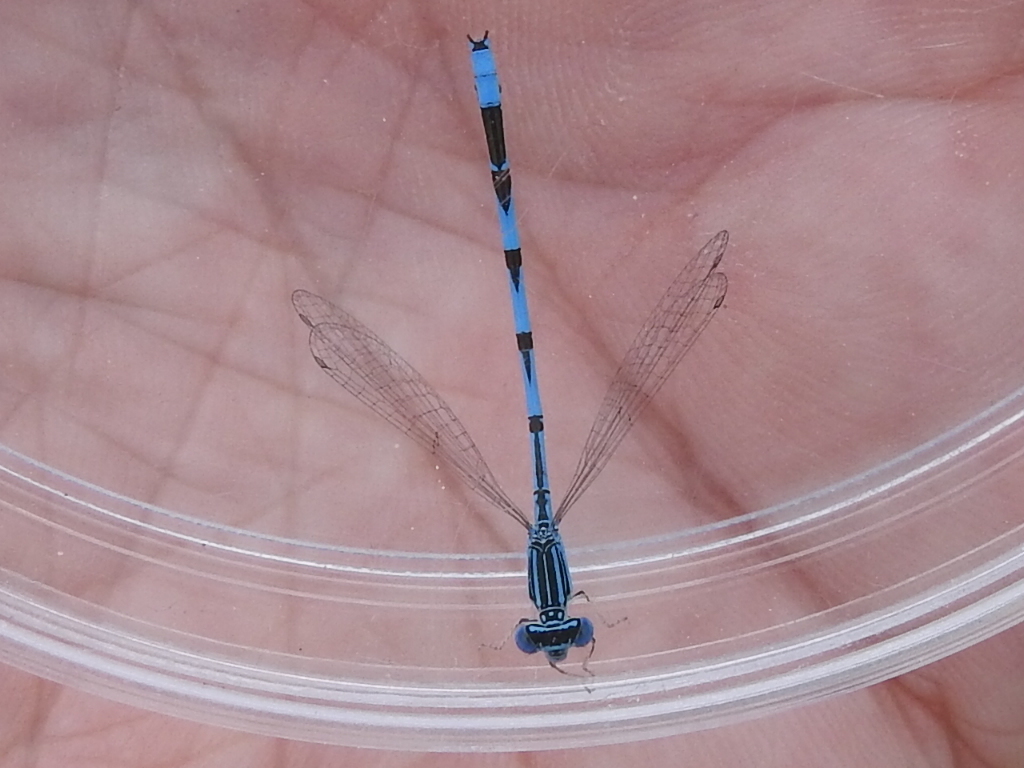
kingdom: Animalia
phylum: Arthropoda
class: Insecta
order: Odonata
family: Coenagrionidae
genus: Enallagma
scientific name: Enallagma basidens
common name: Double-striped bluet
